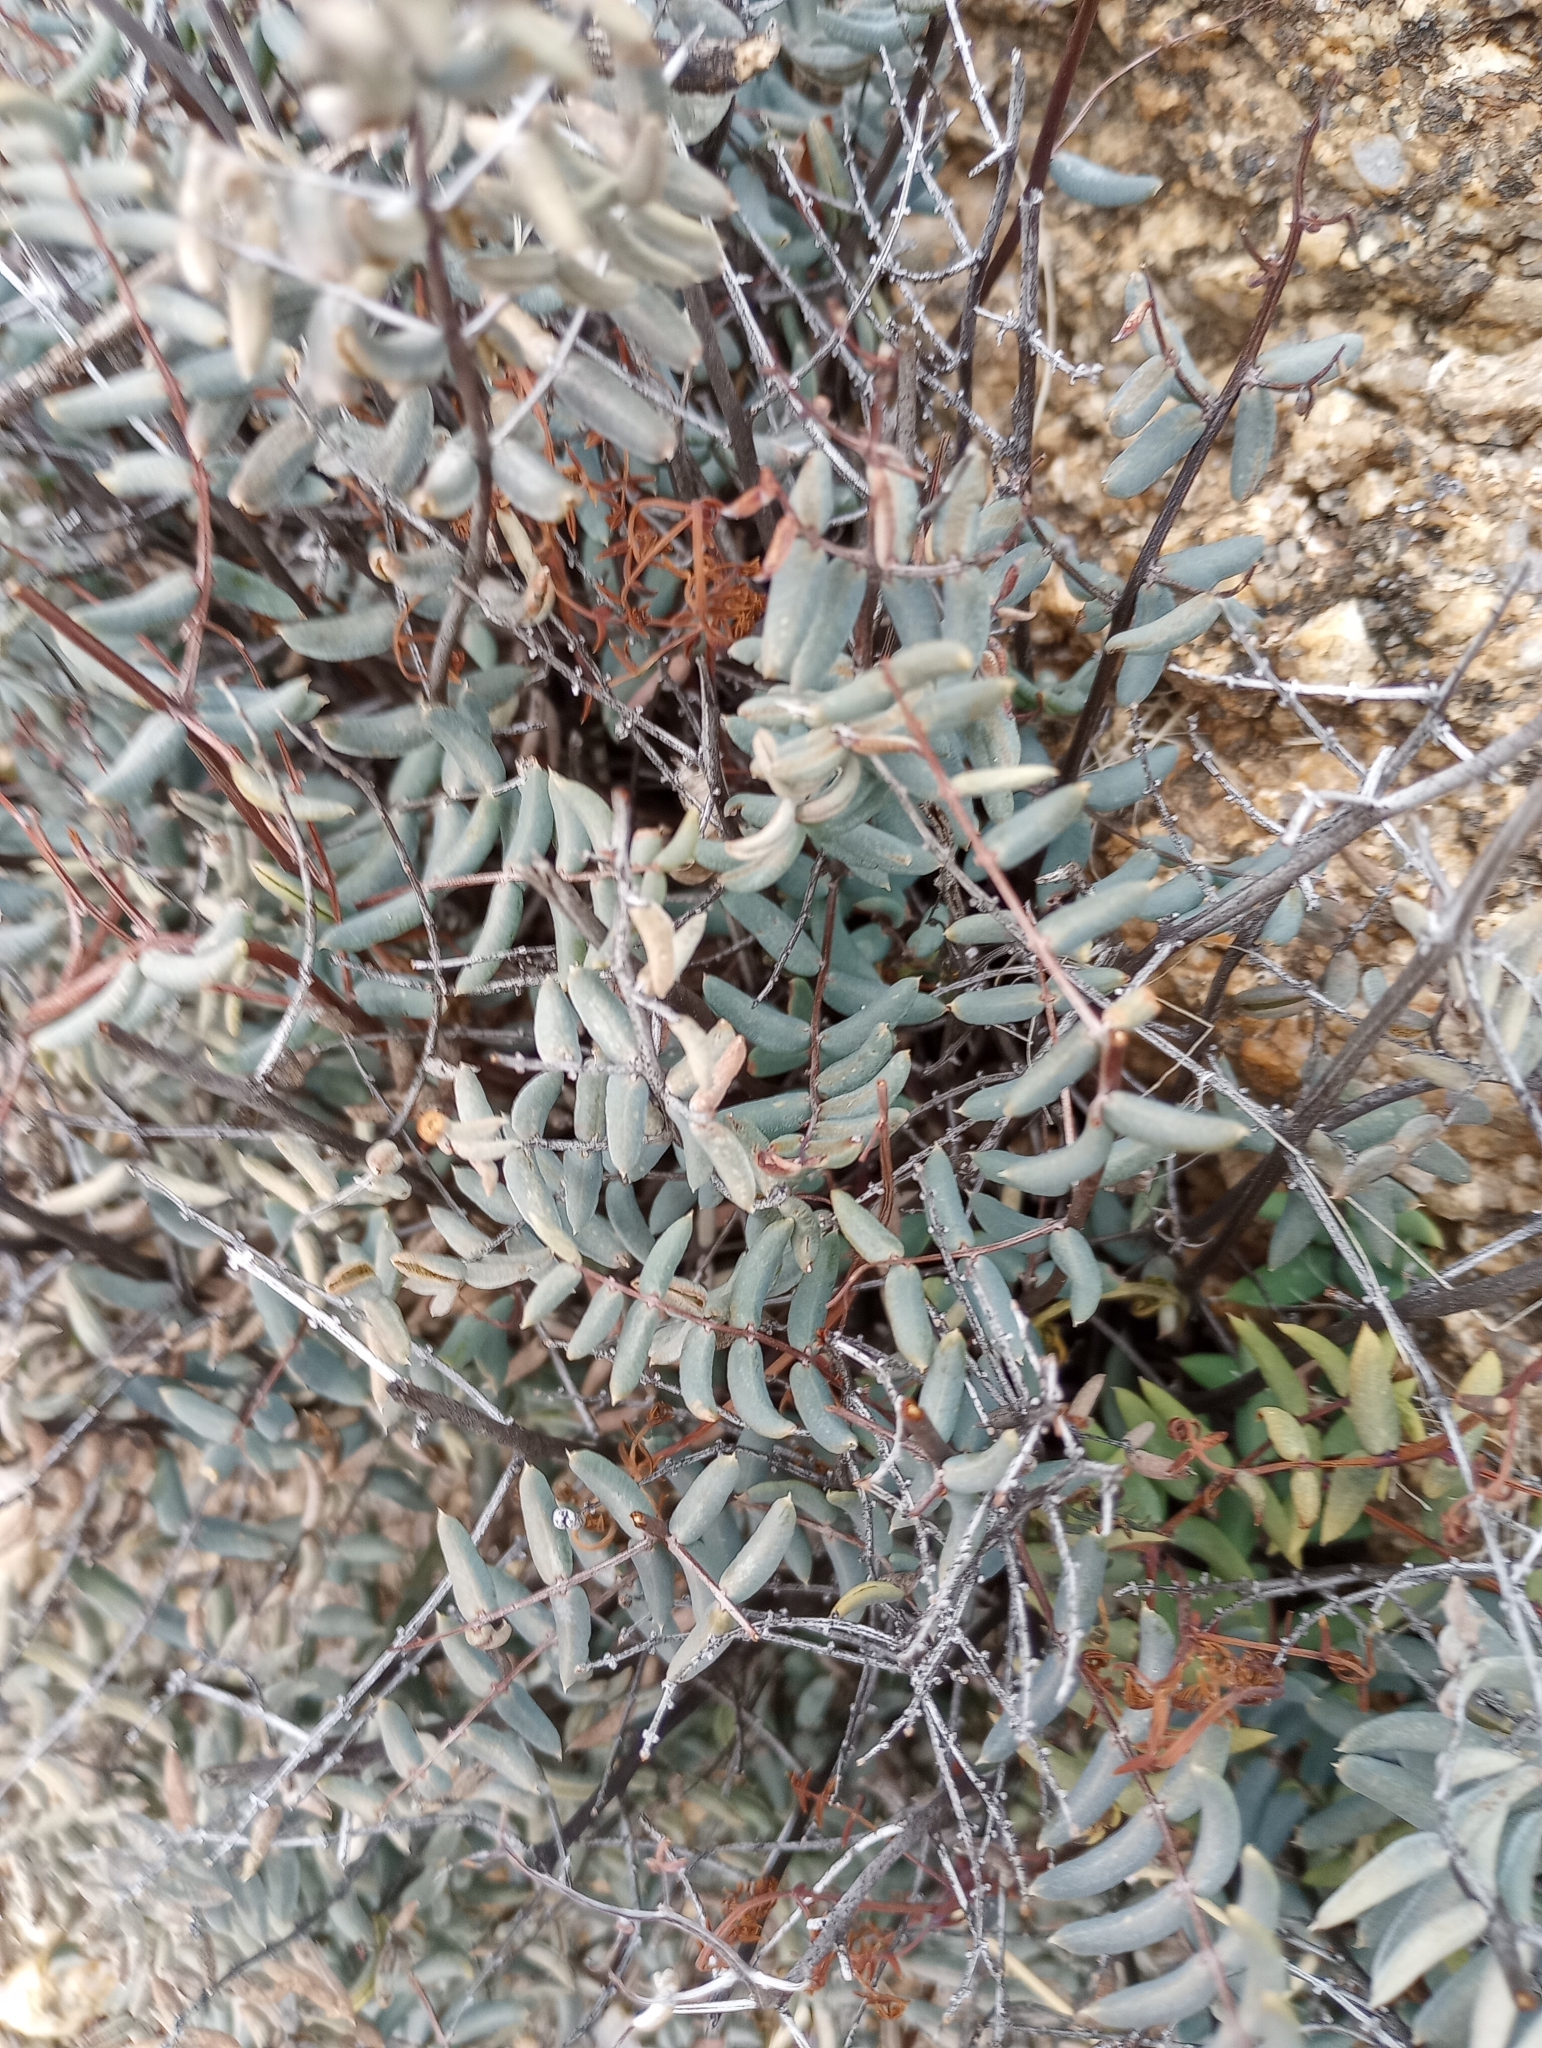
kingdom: Plantae
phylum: Tracheophyta
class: Polypodiopsida
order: Polypodiales
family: Pteridaceae
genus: Pellaea
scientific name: Pellaea truncata
